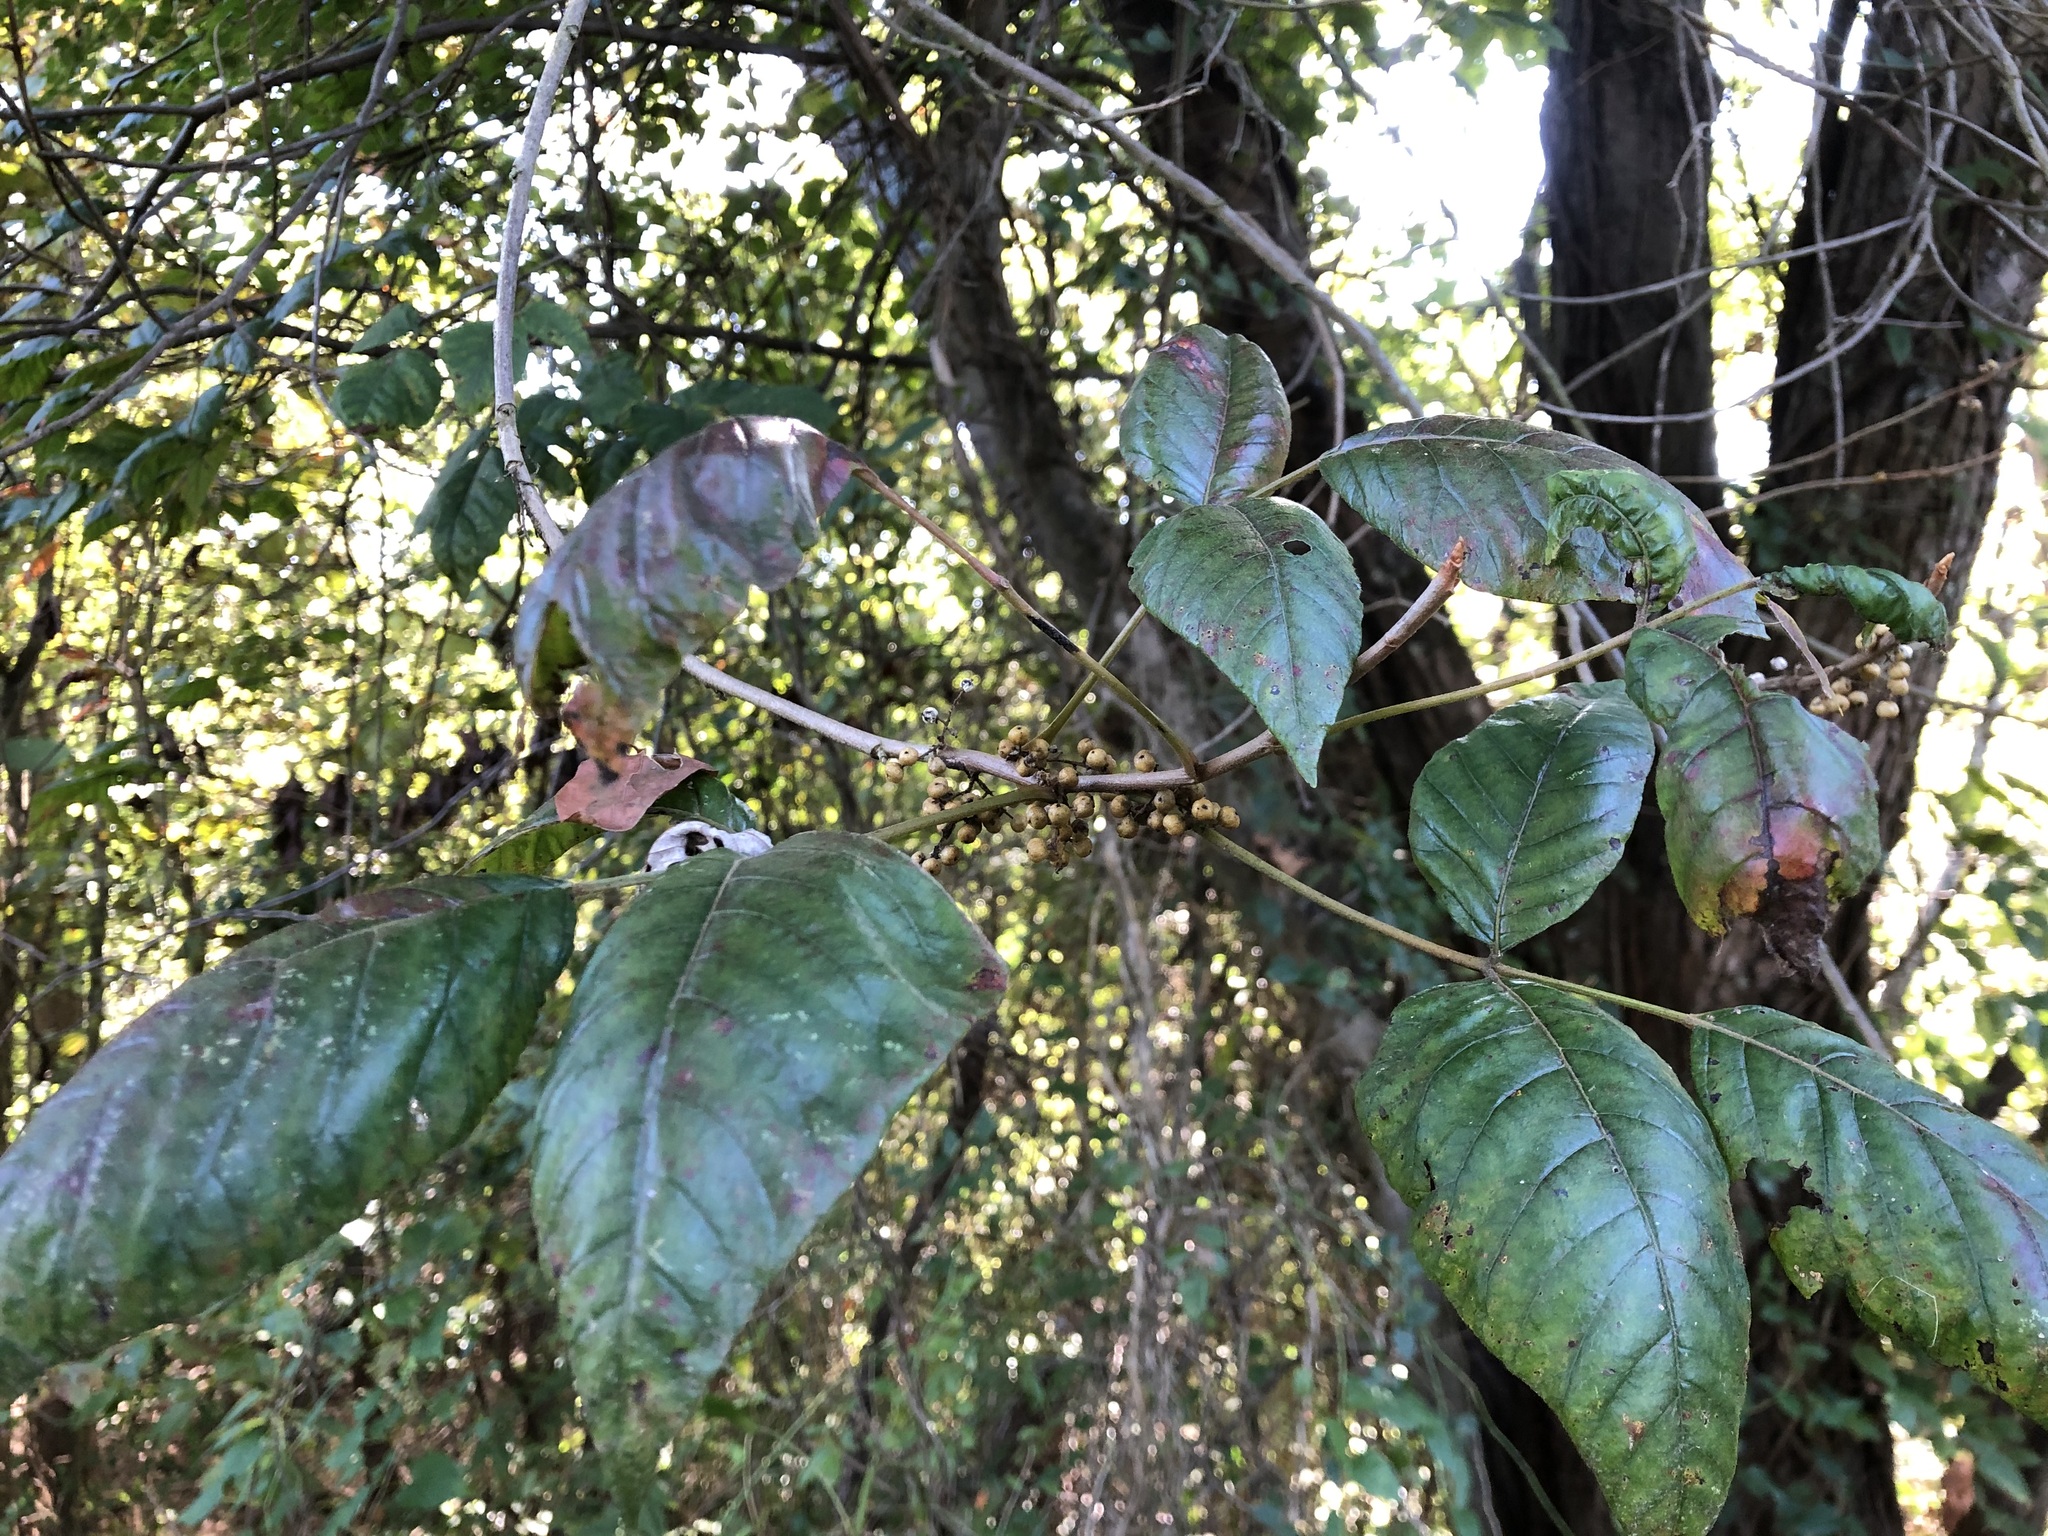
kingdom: Plantae
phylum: Tracheophyta
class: Magnoliopsida
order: Sapindales
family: Anacardiaceae
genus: Toxicodendron
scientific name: Toxicodendron radicans
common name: Poison ivy
